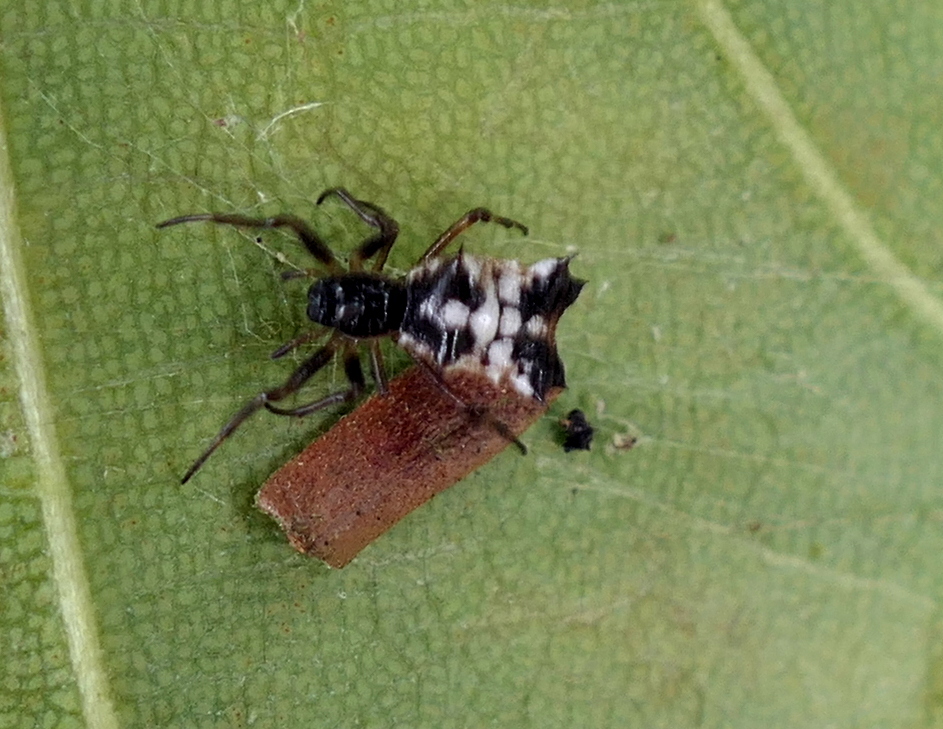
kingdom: Animalia
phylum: Arthropoda
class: Arachnida
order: Araneae
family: Araneidae
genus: Micrathena
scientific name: Micrathena picta
